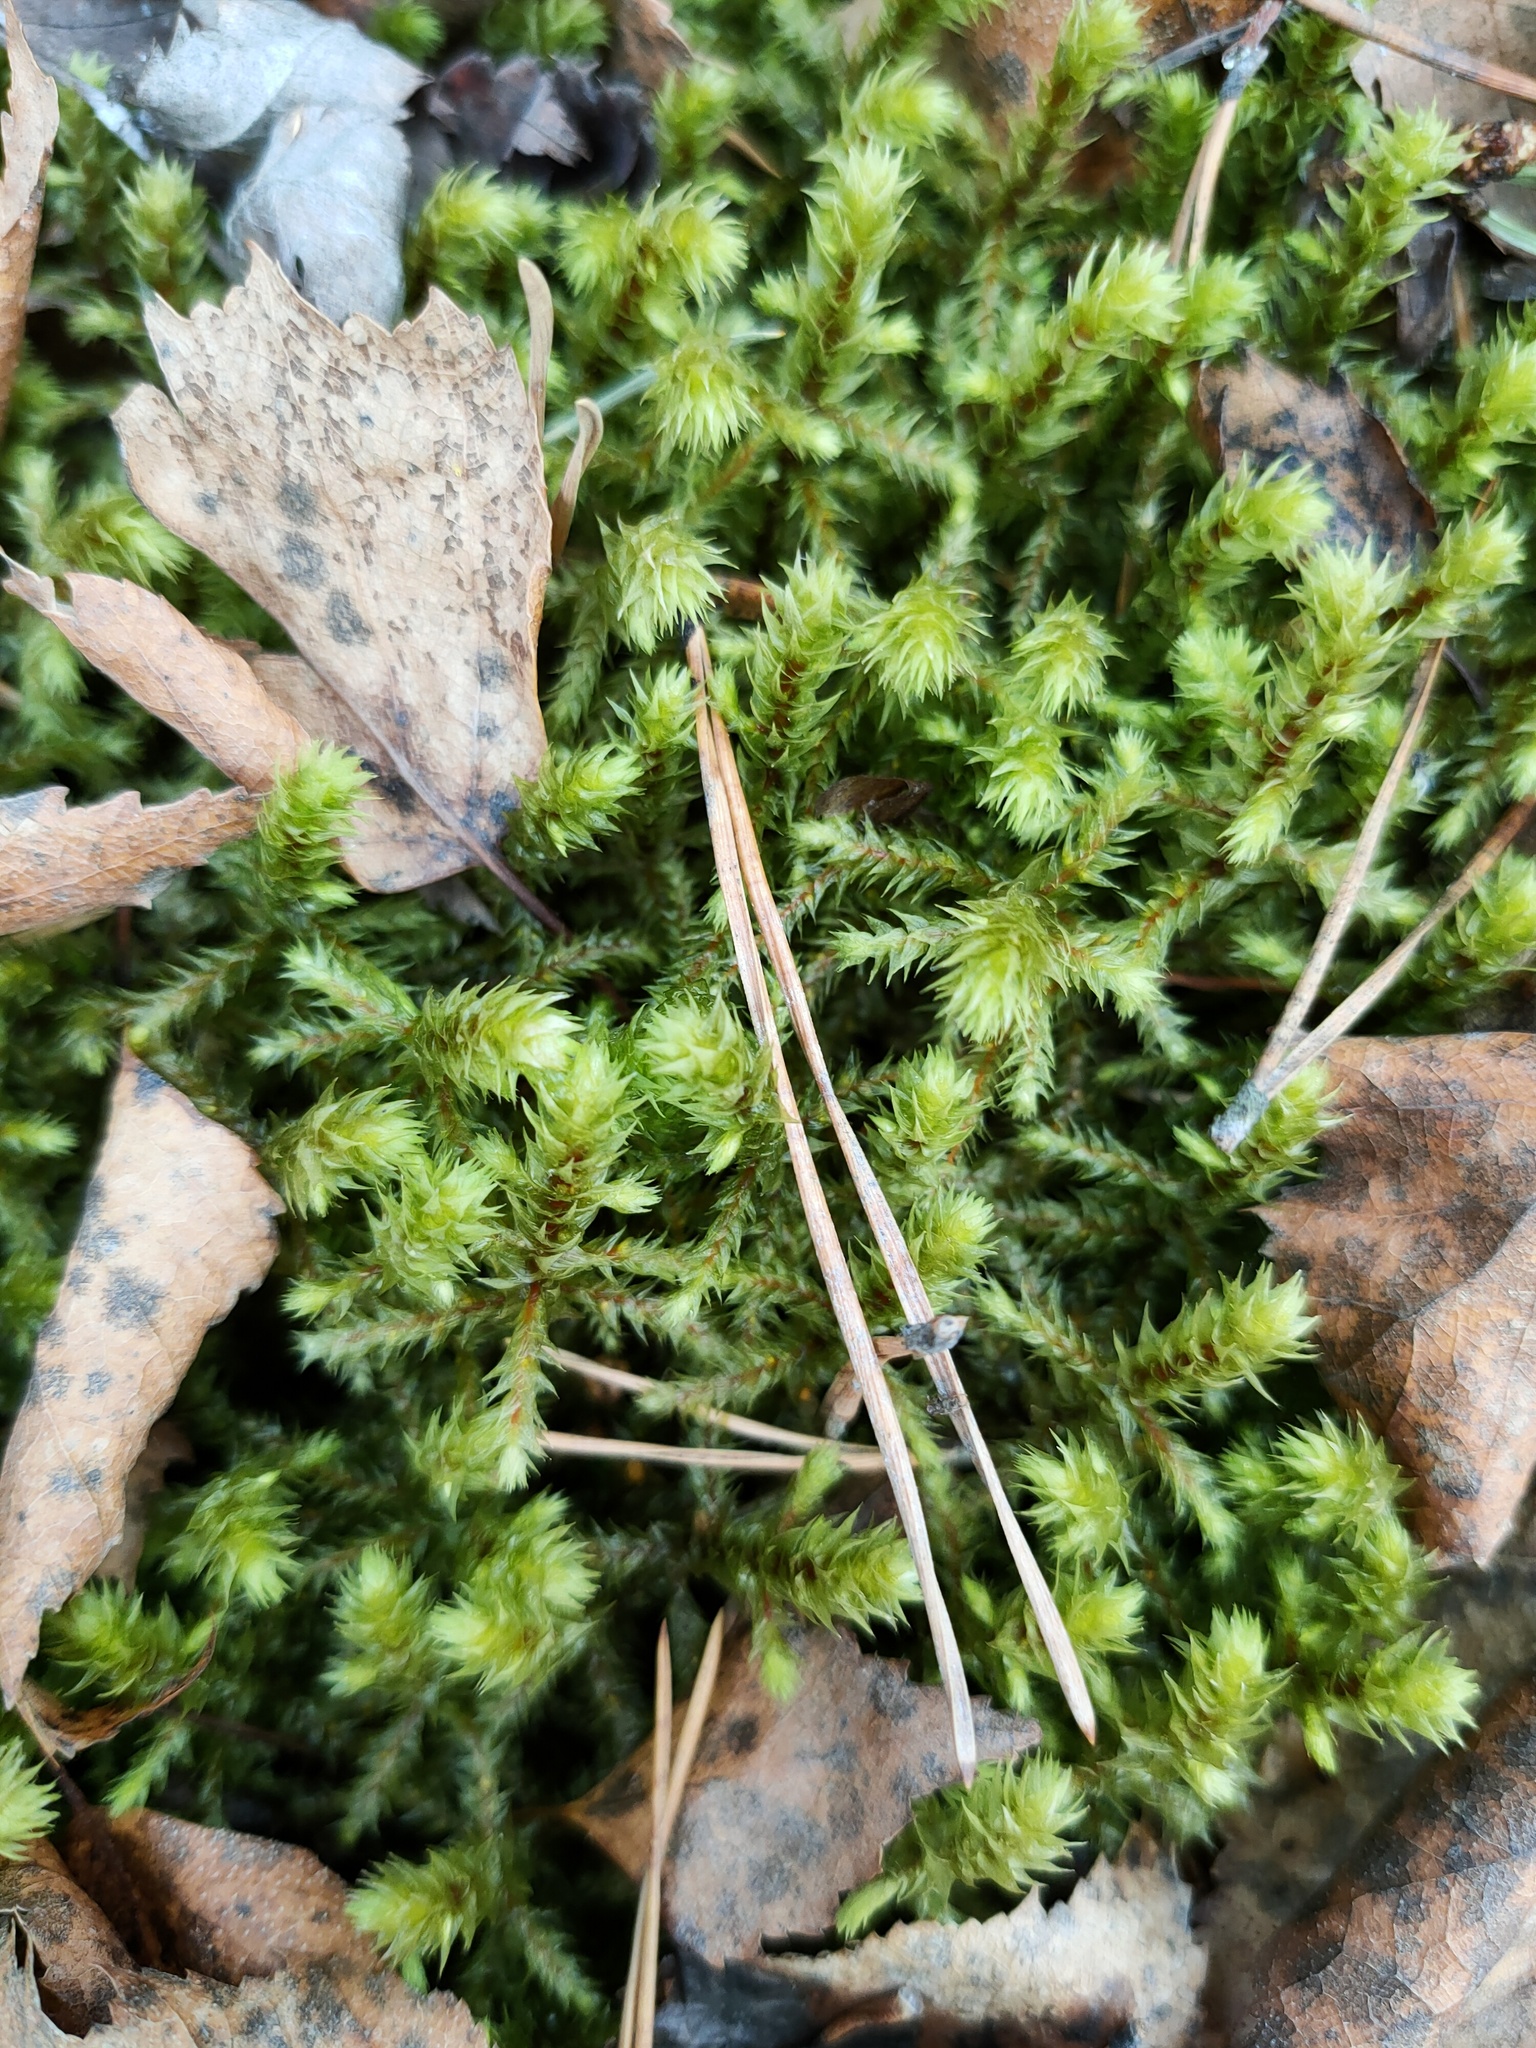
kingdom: Plantae
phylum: Bryophyta
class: Bryopsida
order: Hypnales
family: Hylocomiaceae
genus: Hylocomiadelphus
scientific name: Hylocomiadelphus triquetrus
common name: Rough goose neck moss
